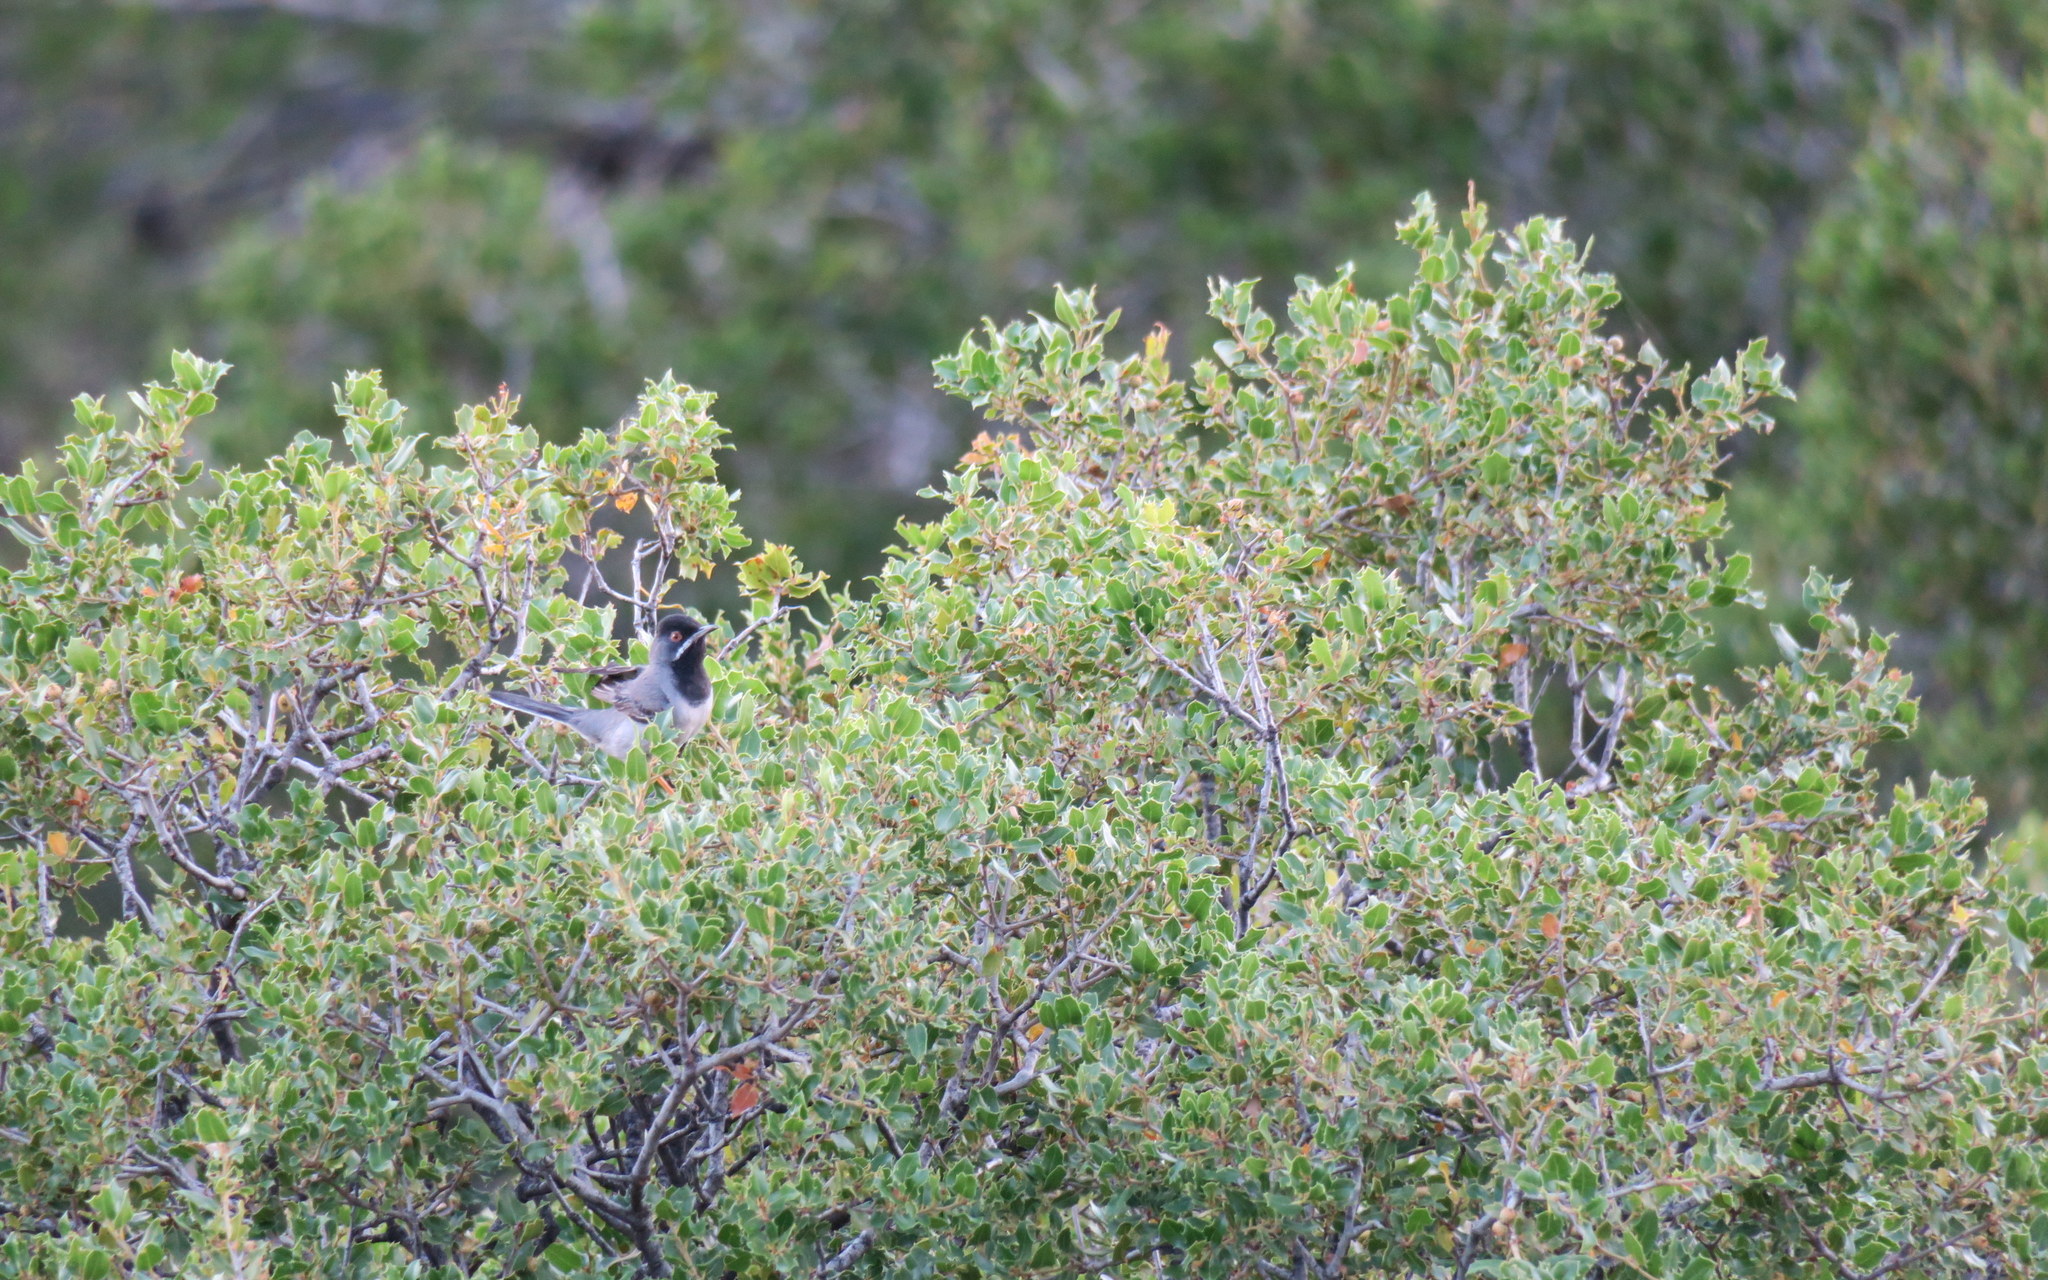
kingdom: Animalia
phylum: Chordata
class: Aves
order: Passeriformes
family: Sylviidae
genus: Sylvia
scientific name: Sylvia ruppeli
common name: Rüppell's warbler
